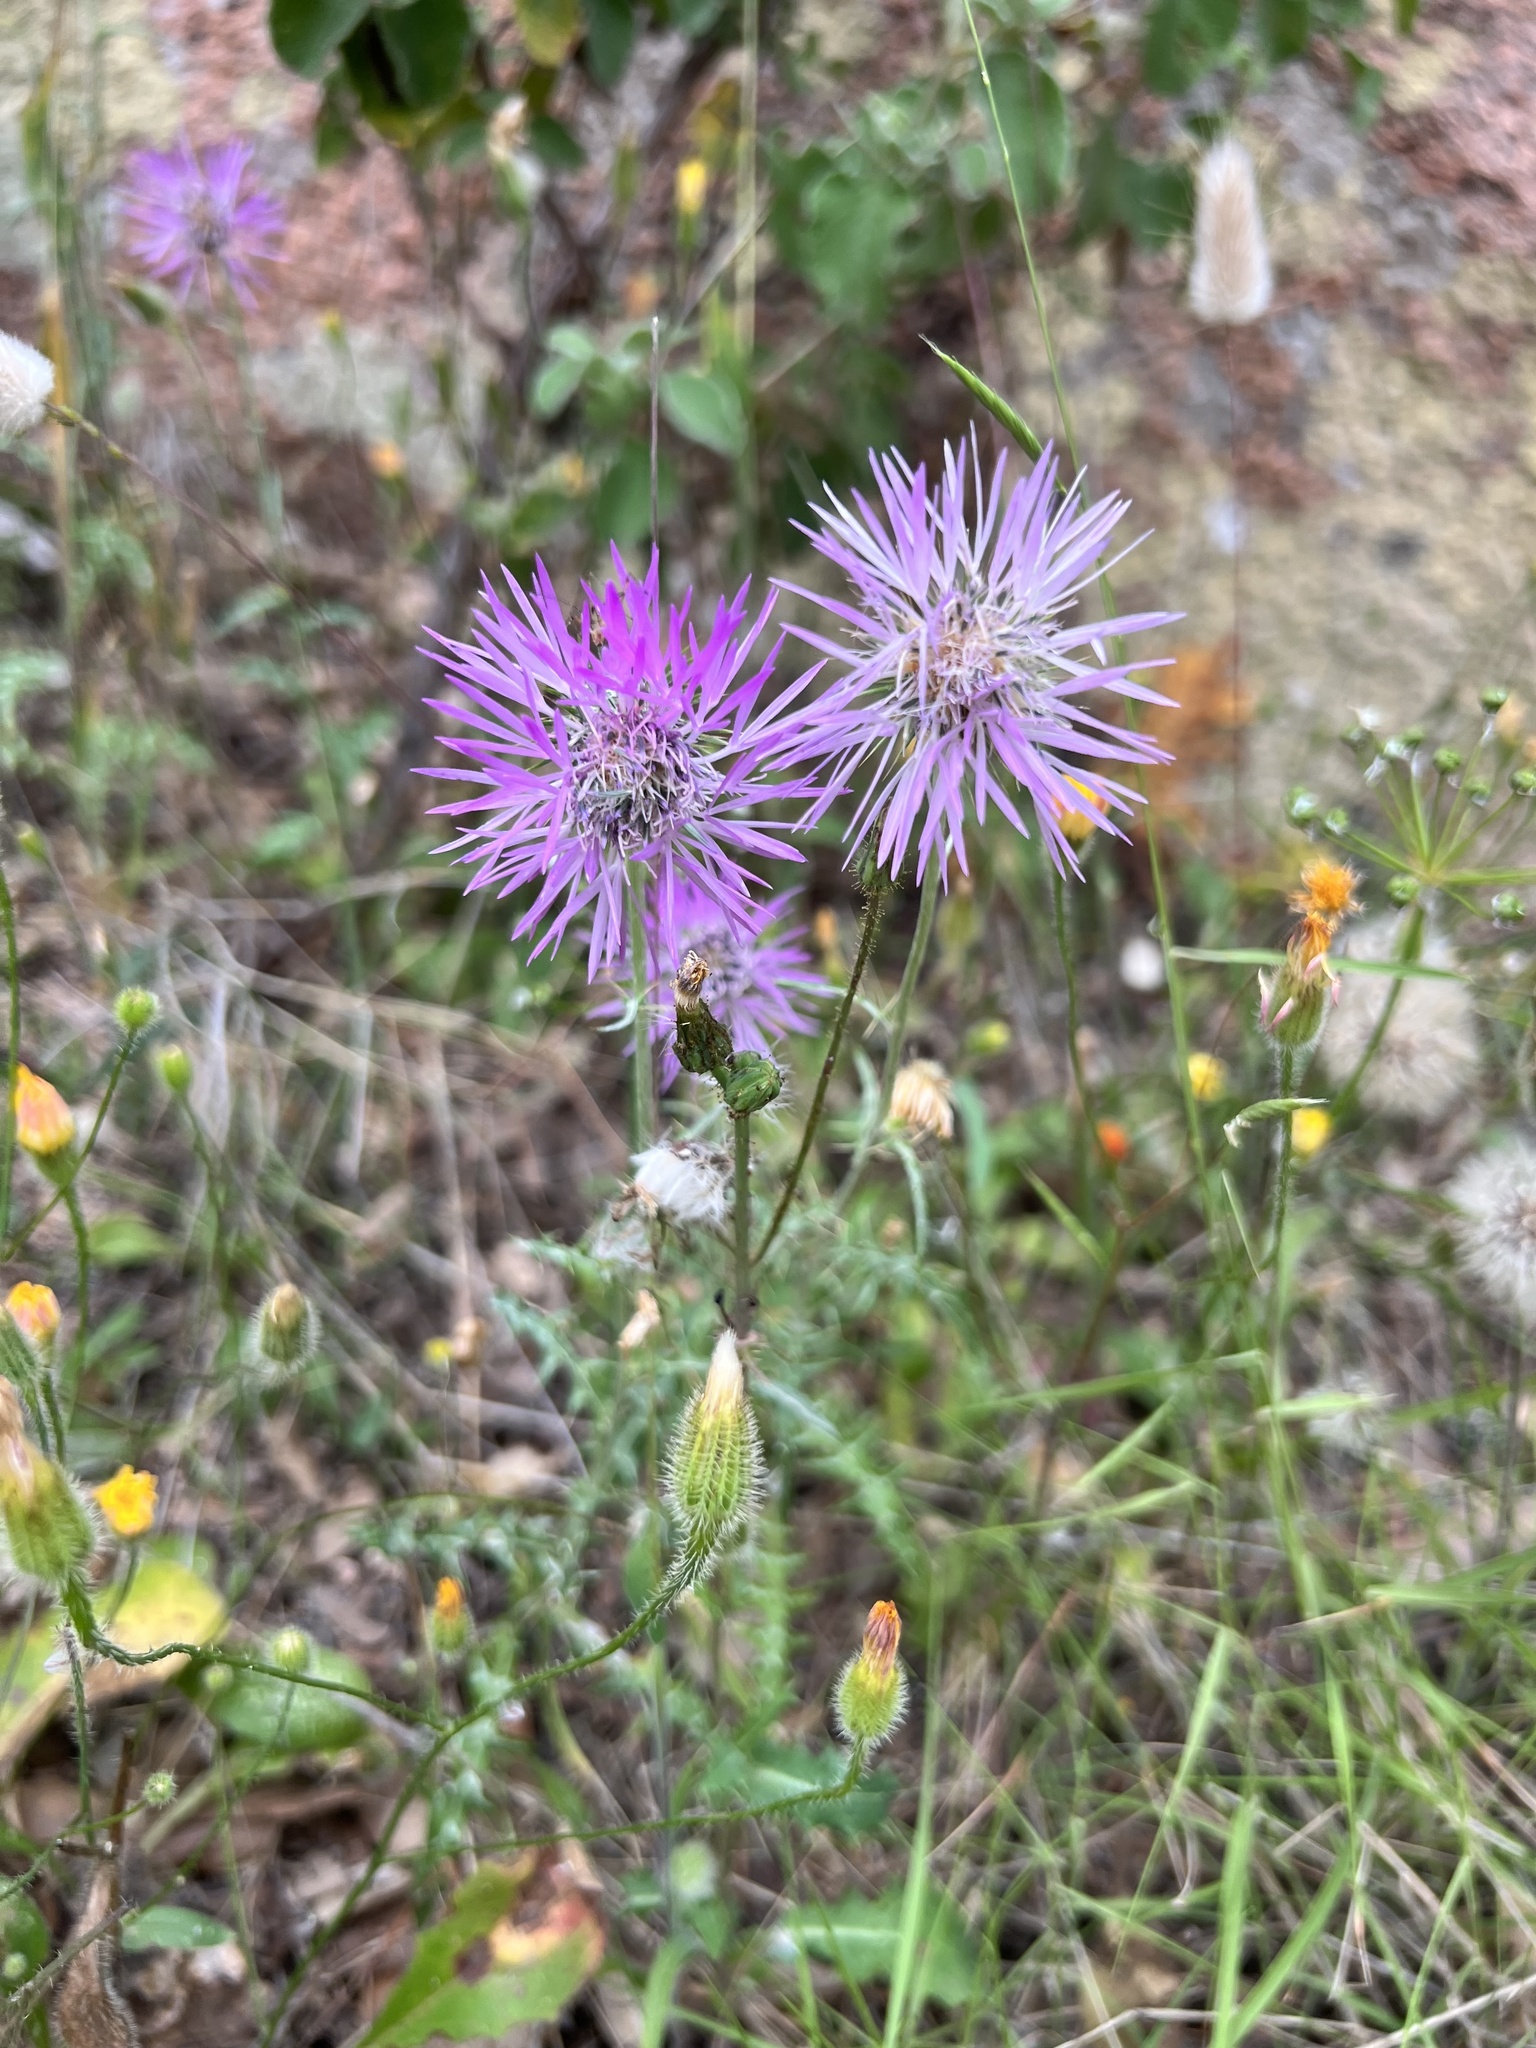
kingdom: Plantae
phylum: Tracheophyta
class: Magnoliopsida
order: Asterales
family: Asteraceae
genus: Galactites
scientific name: Galactites tomentosa
